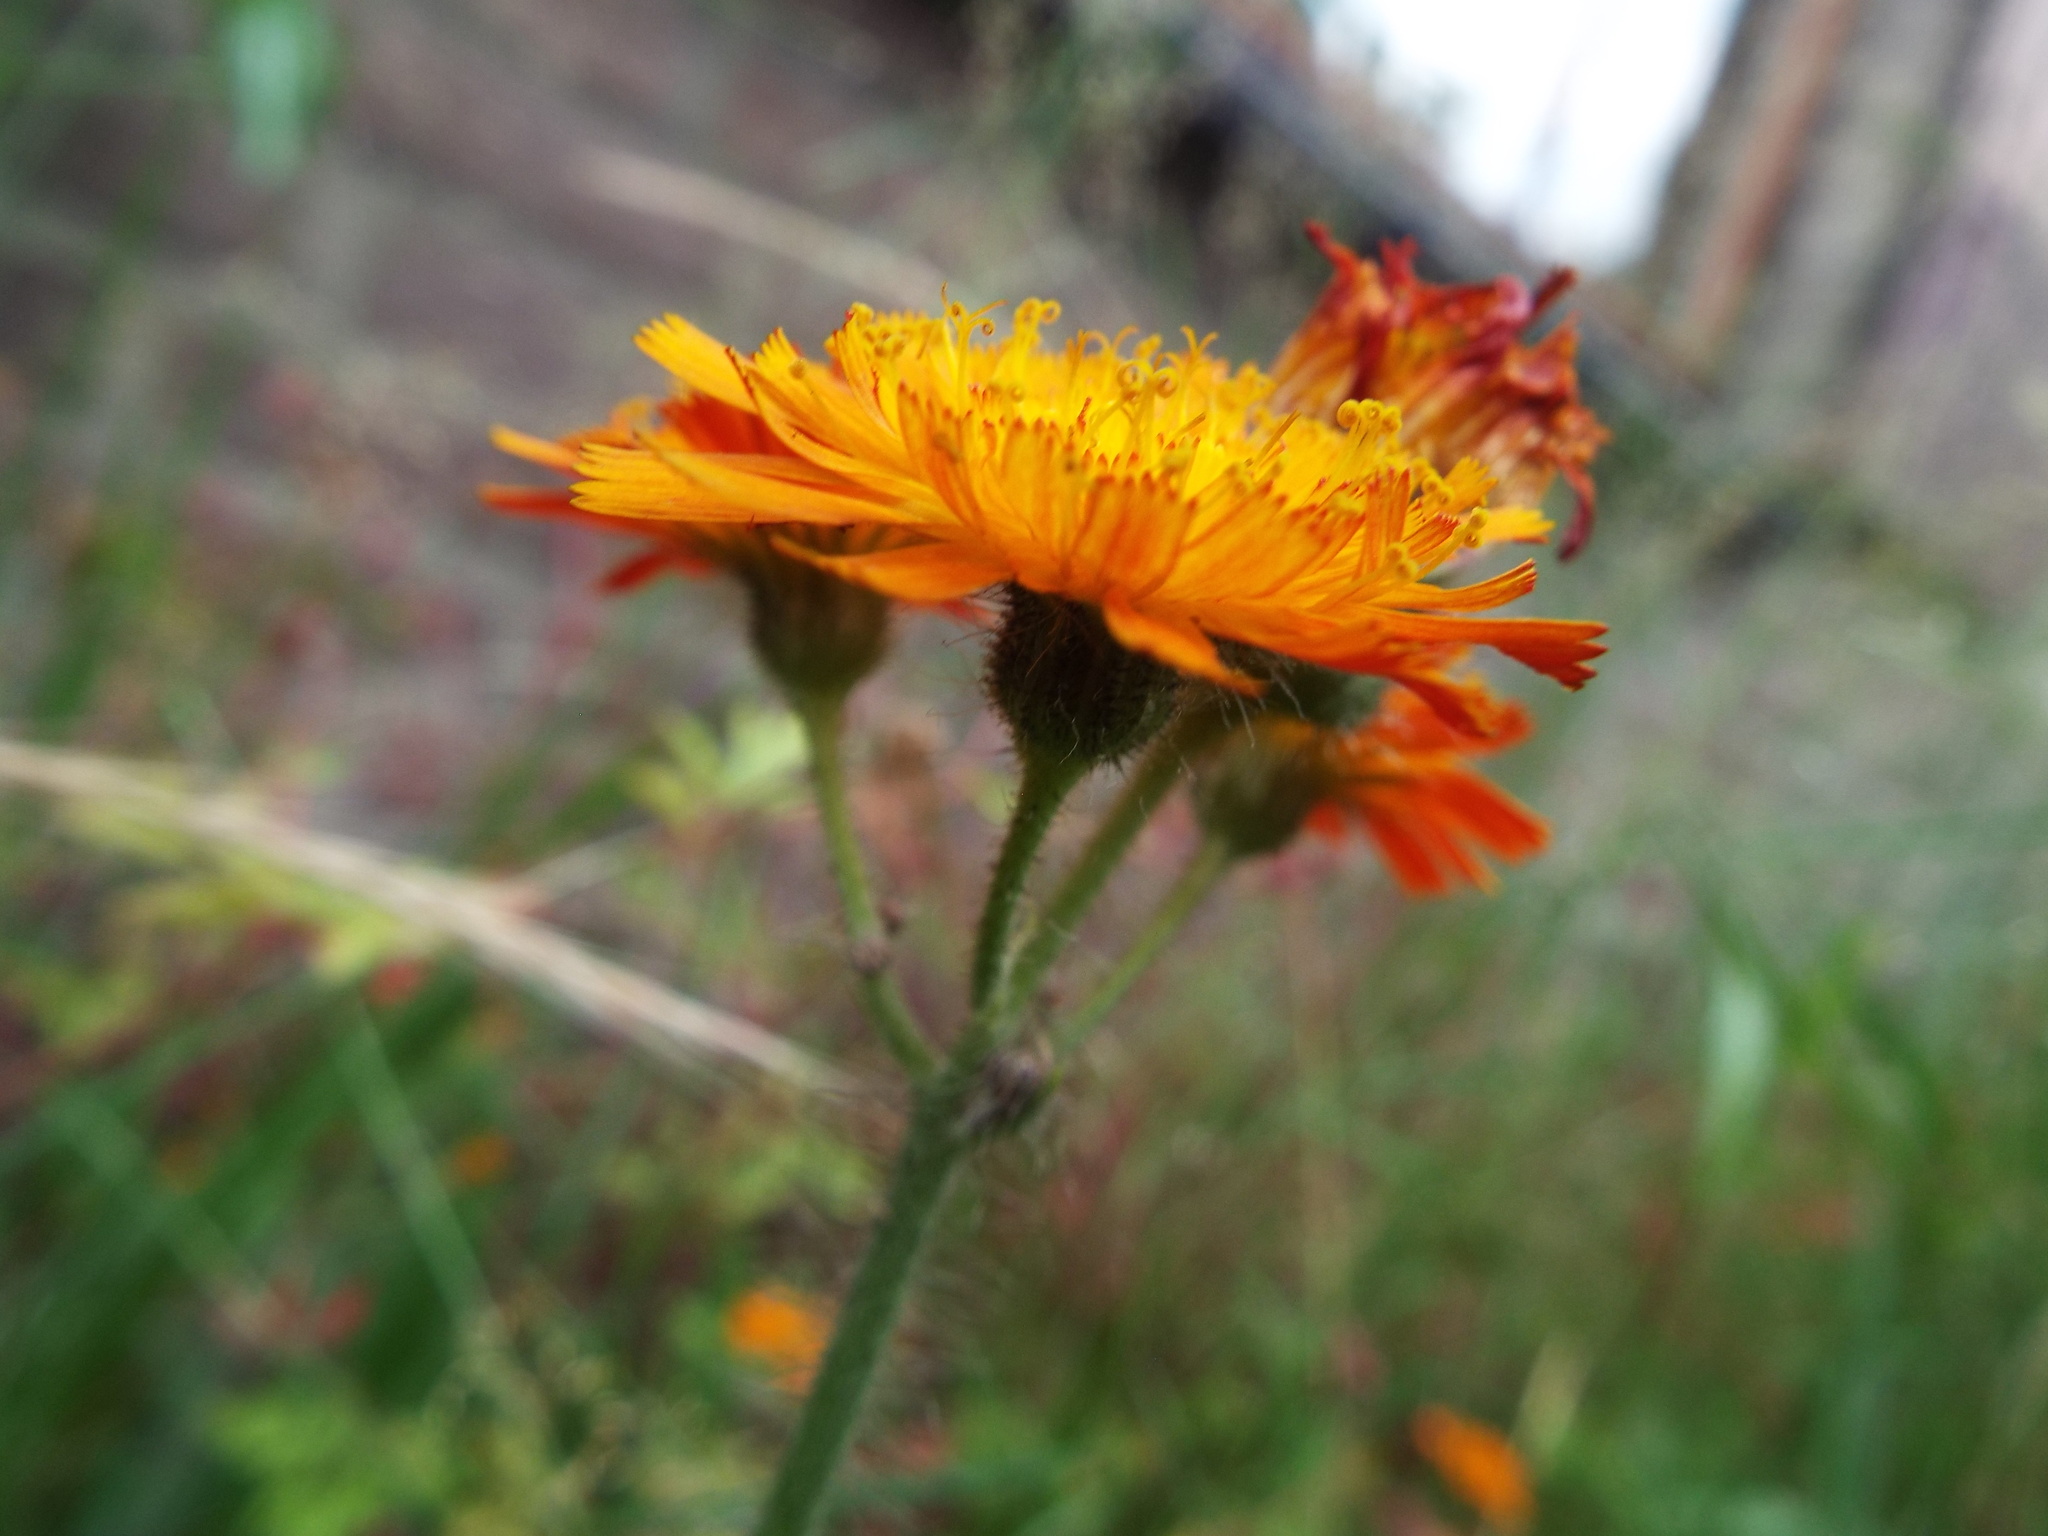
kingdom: Plantae
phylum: Tracheophyta
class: Magnoliopsida
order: Asterales
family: Asteraceae
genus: Pilosella
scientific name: Pilosella aurantiaca
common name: Fox-and-cubs
